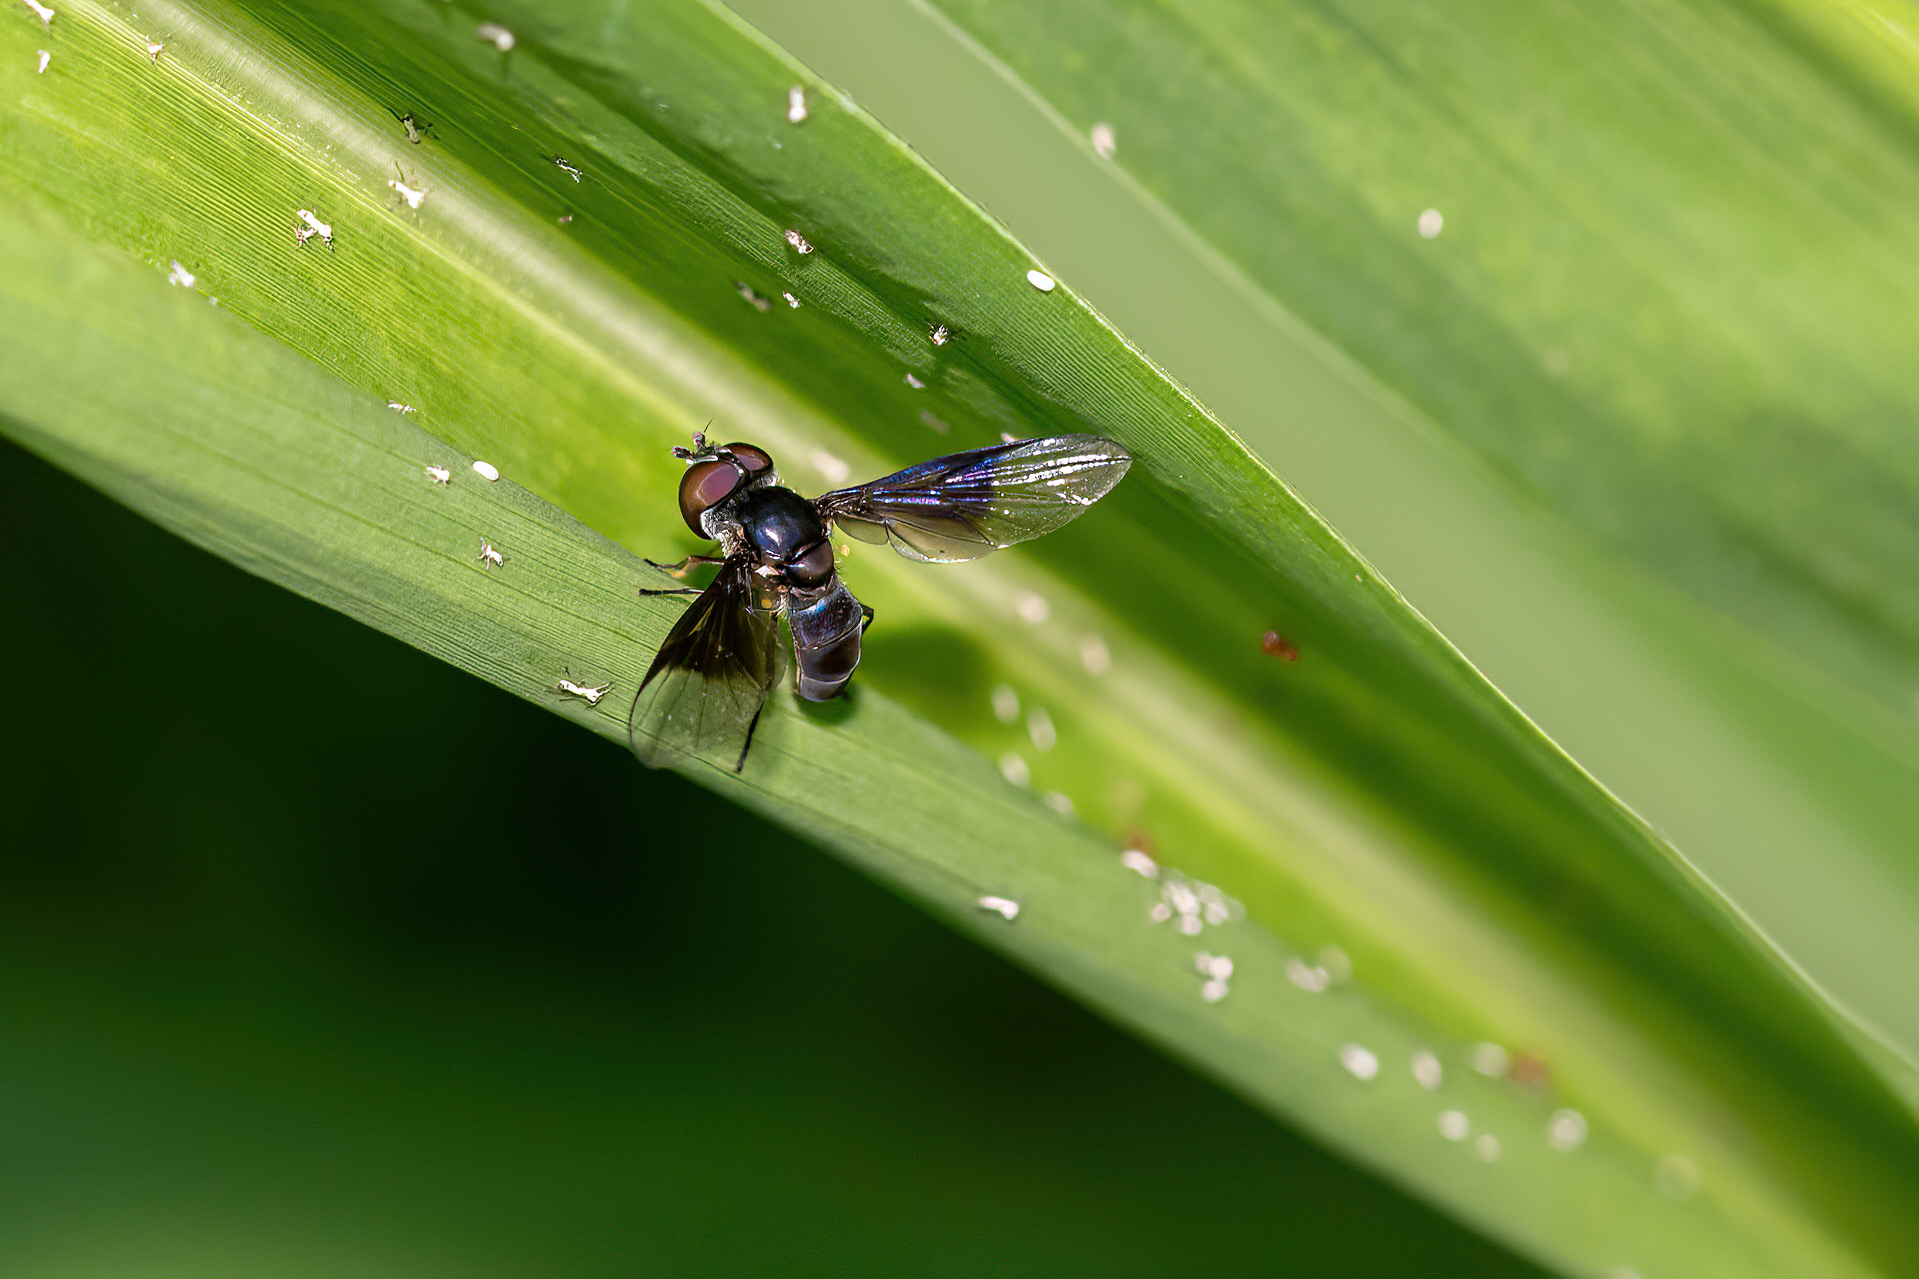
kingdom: Animalia
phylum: Arthropoda
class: Insecta
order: Diptera
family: Syrphidae
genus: Ocyptamus
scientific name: Ocyptamus dimidiatus
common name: Syrphid fly
